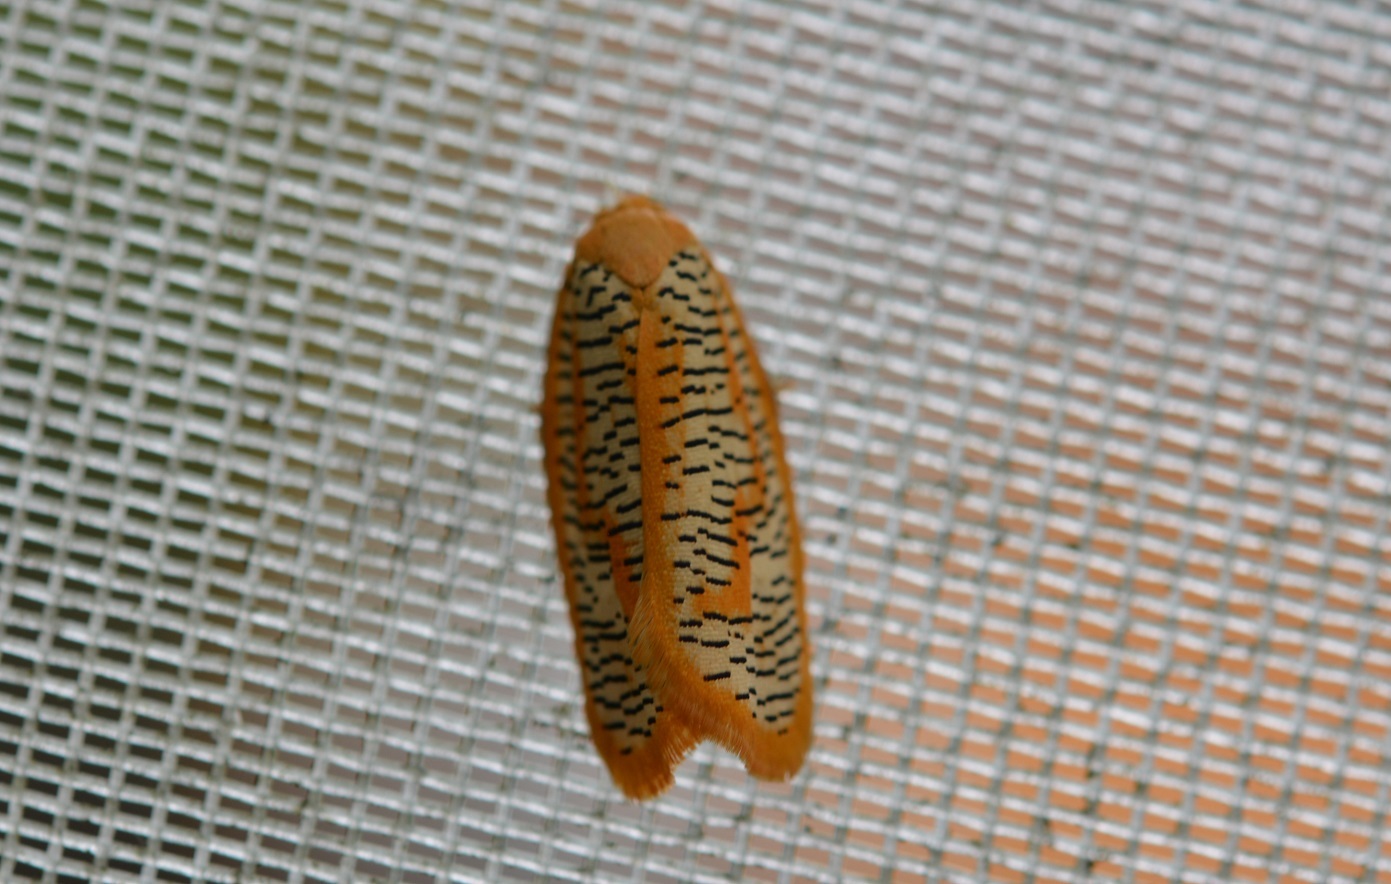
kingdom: Animalia
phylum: Arthropoda
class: Insecta
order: Lepidoptera
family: Tortricidae
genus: Templemania
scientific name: Templemania rhythmogramma
